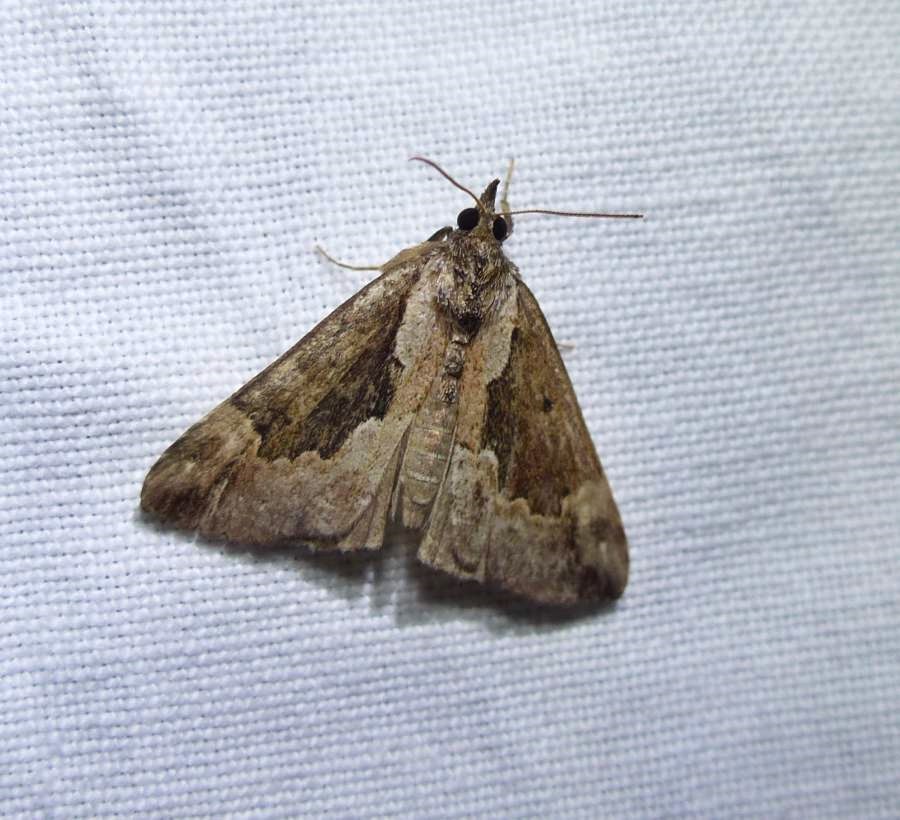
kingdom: Animalia
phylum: Arthropoda
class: Insecta
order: Lepidoptera
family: Erebidae
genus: Hypena
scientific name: Hypena baltimoralis
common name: Baltimore snout
